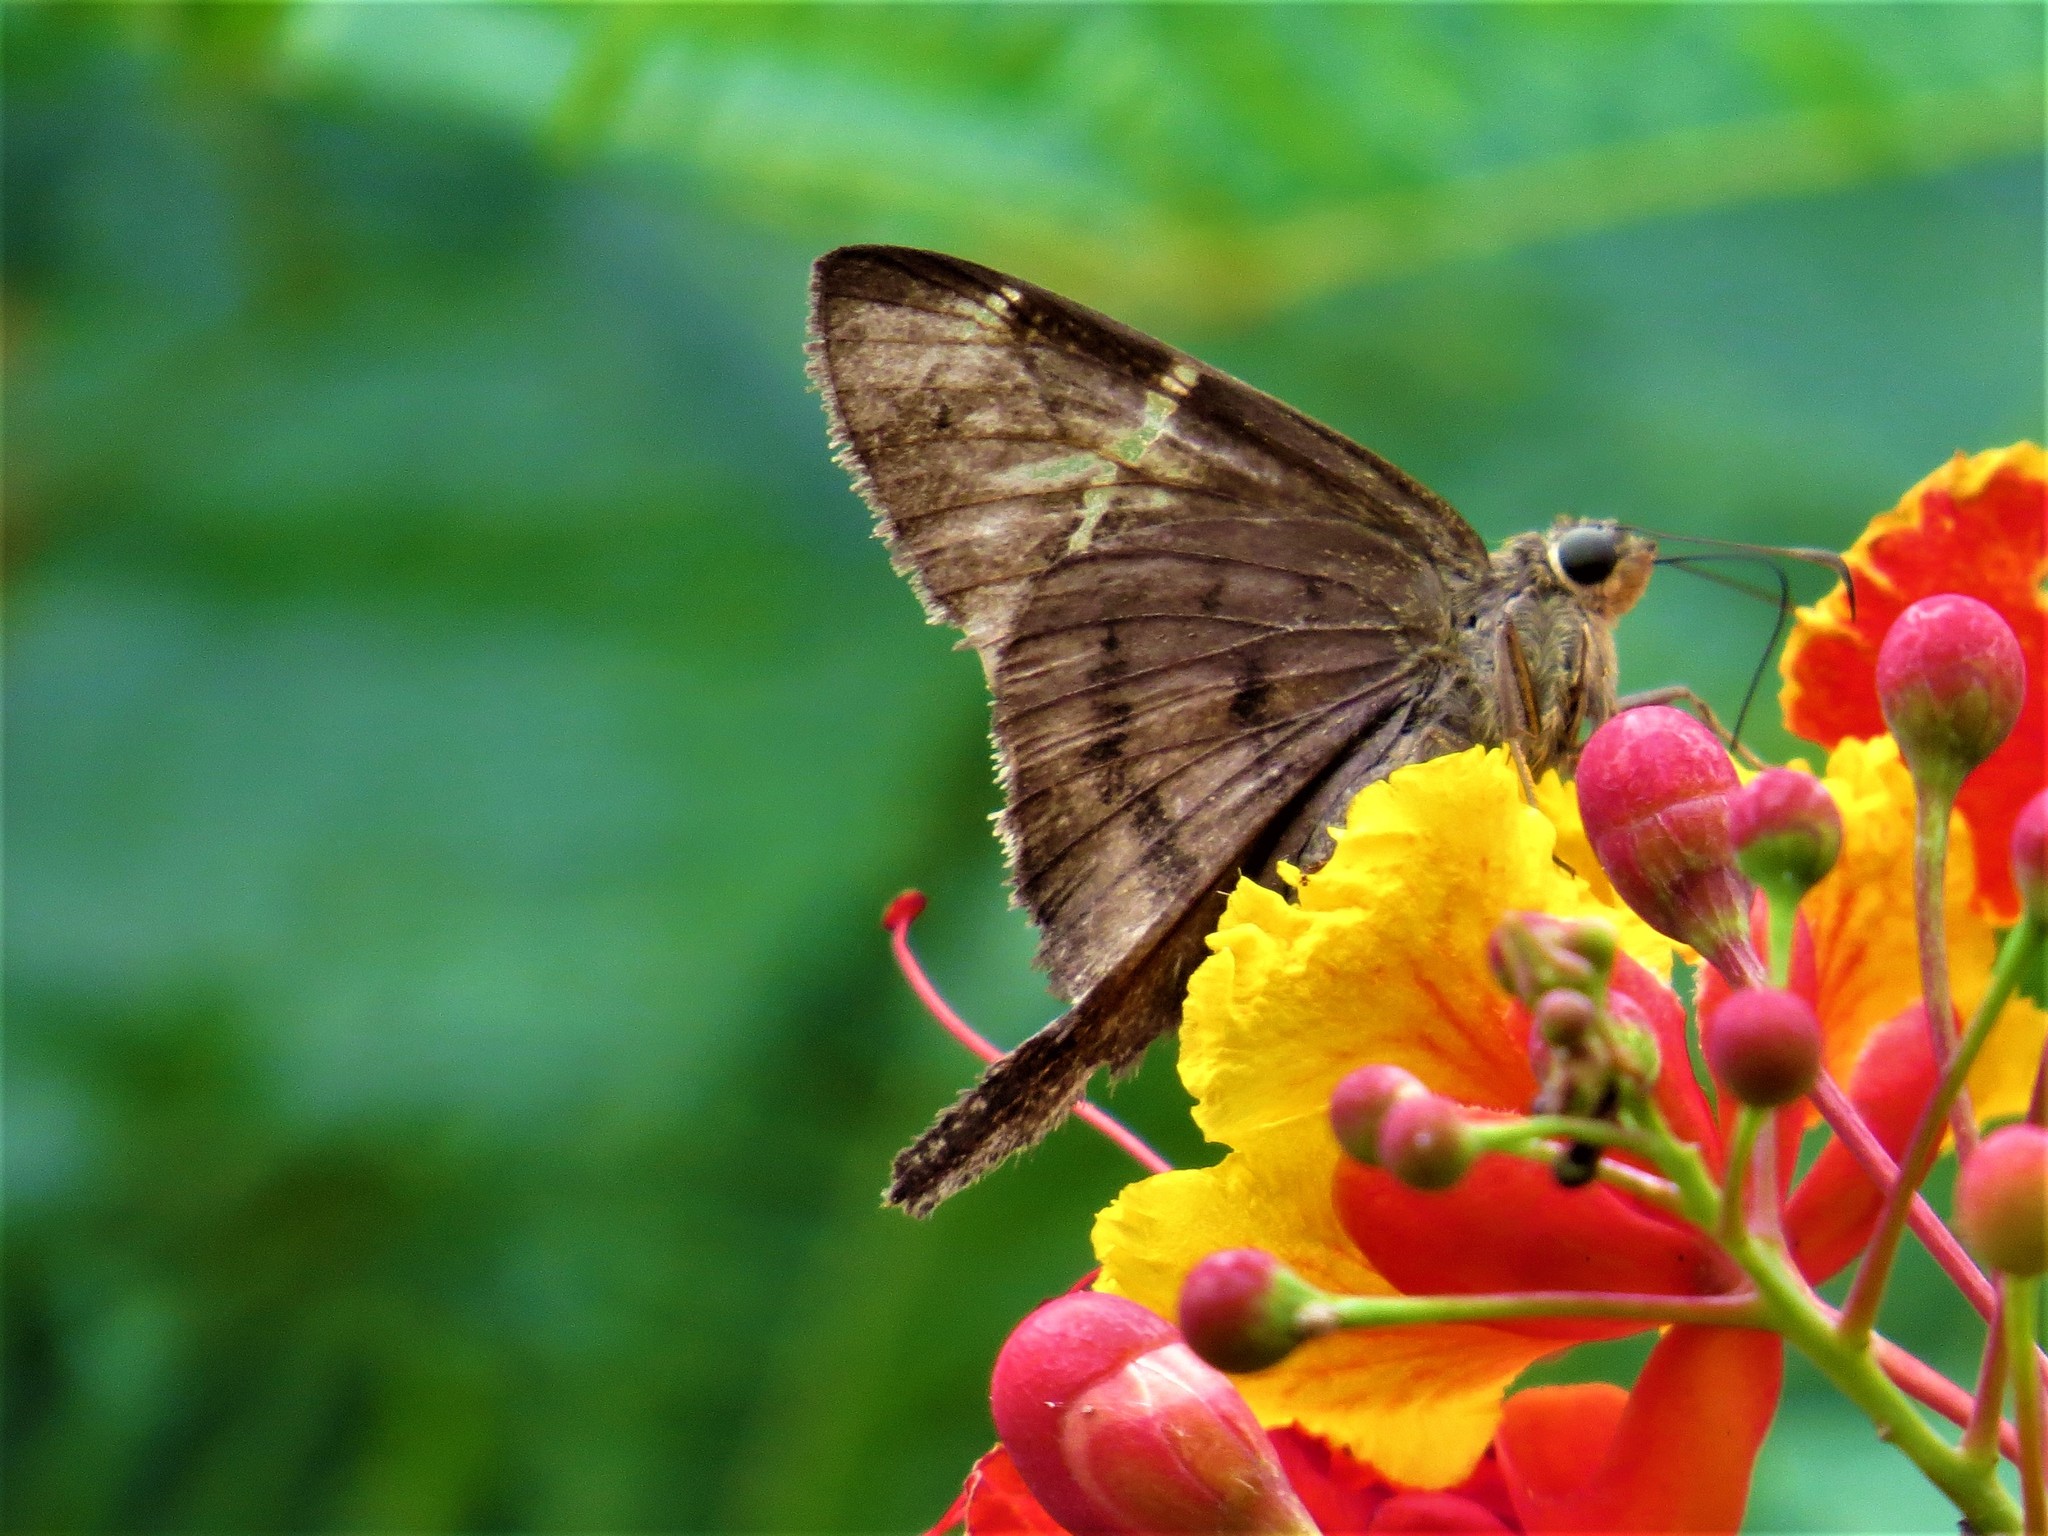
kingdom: Animalia
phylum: Arthropoda
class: Insecta
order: Lepidoptera
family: Hesperiidae
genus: Urbanus
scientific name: Urbanus procne
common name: Brown longtail
